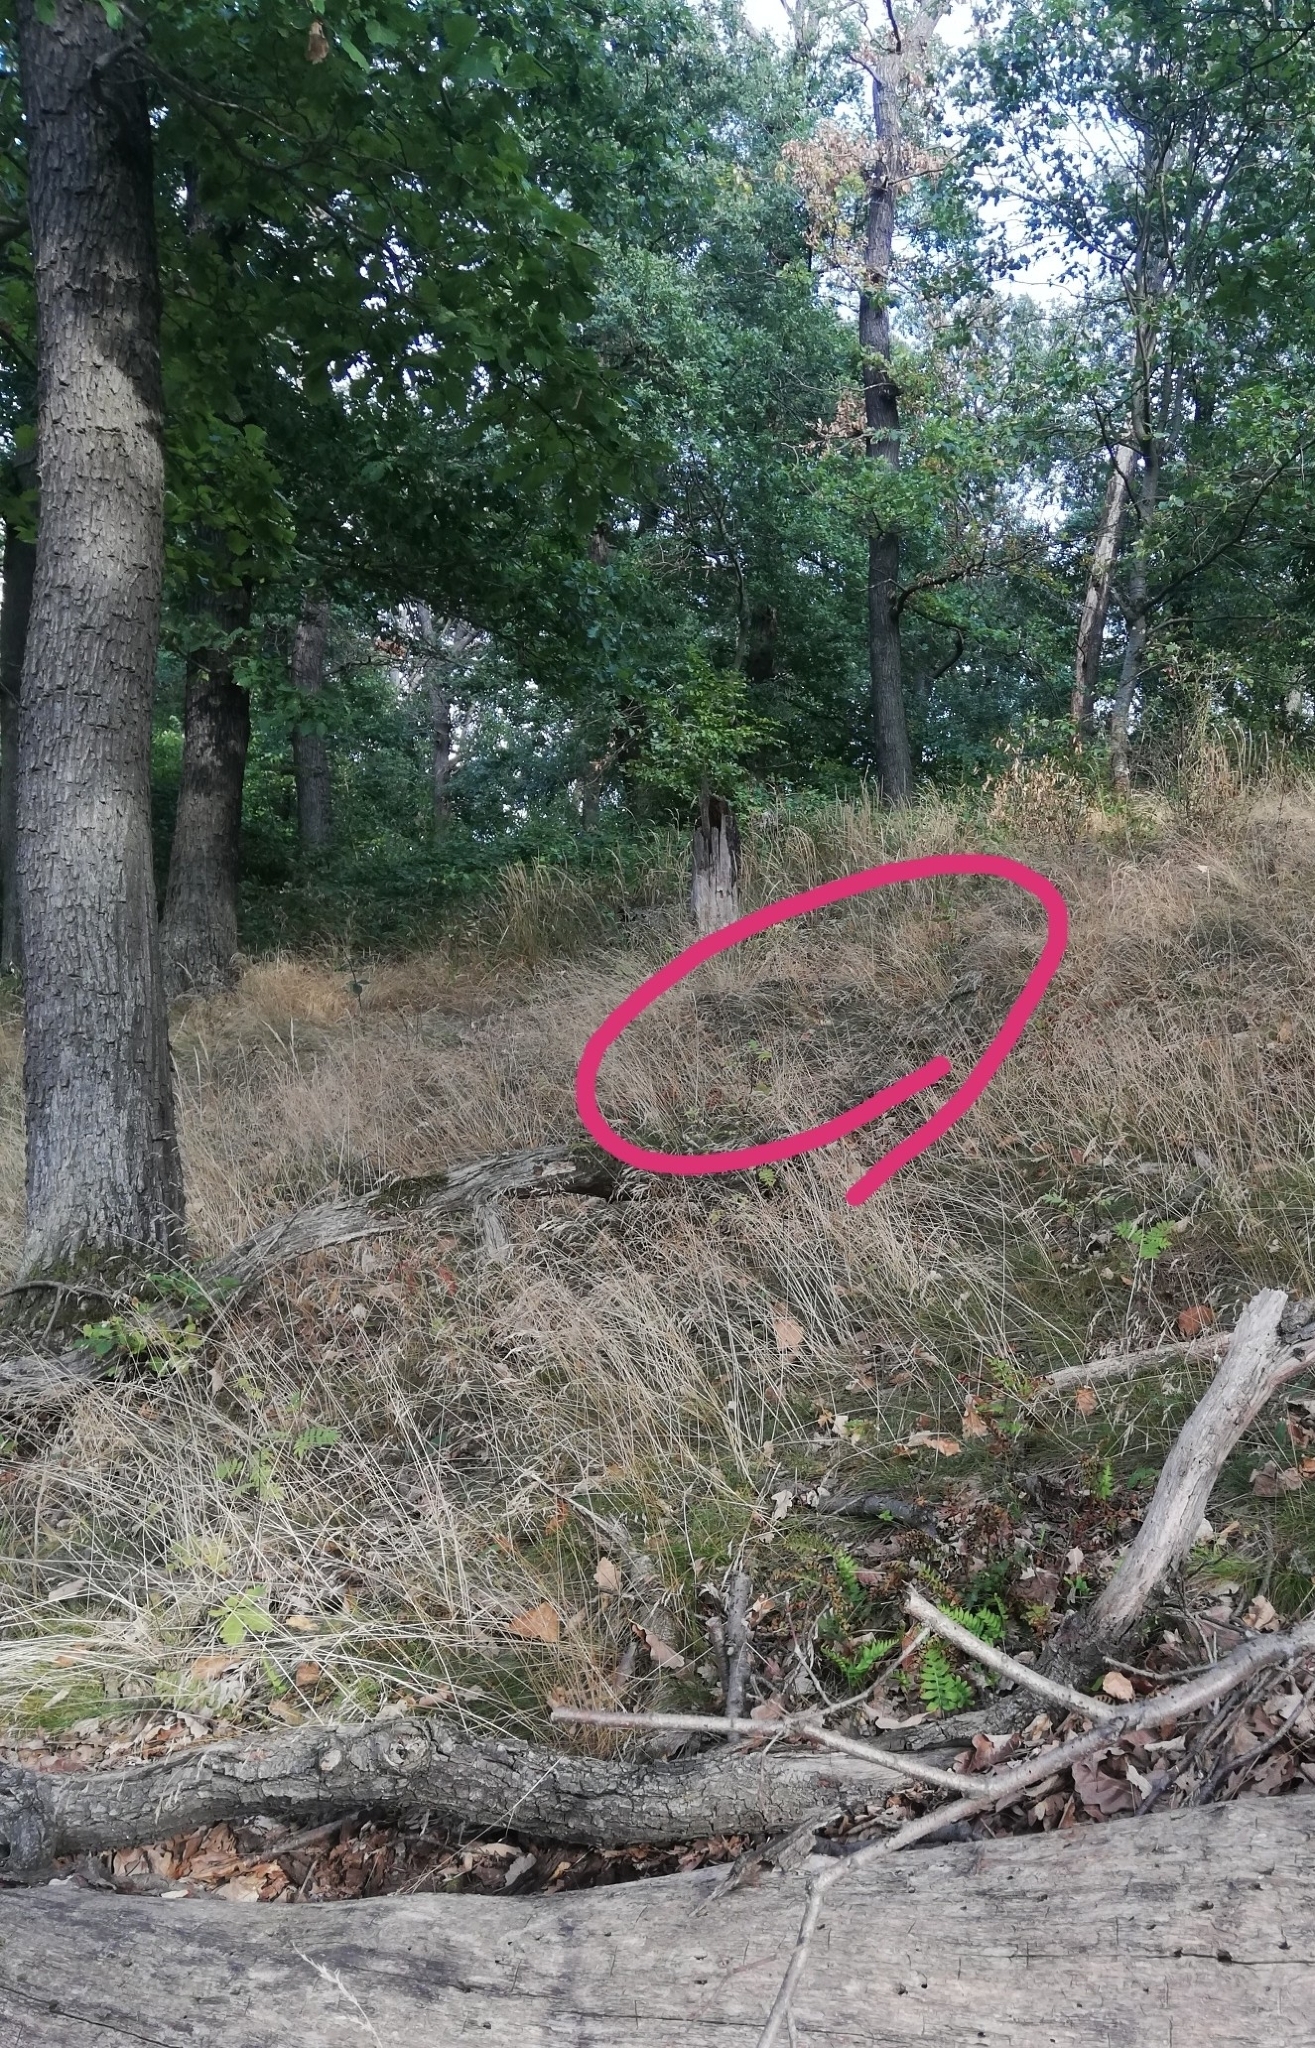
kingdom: Animalia
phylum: Chordata
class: Aves
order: Strigiformes
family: Strigidae
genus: Strix
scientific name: Strix aluco
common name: Tawny owl
